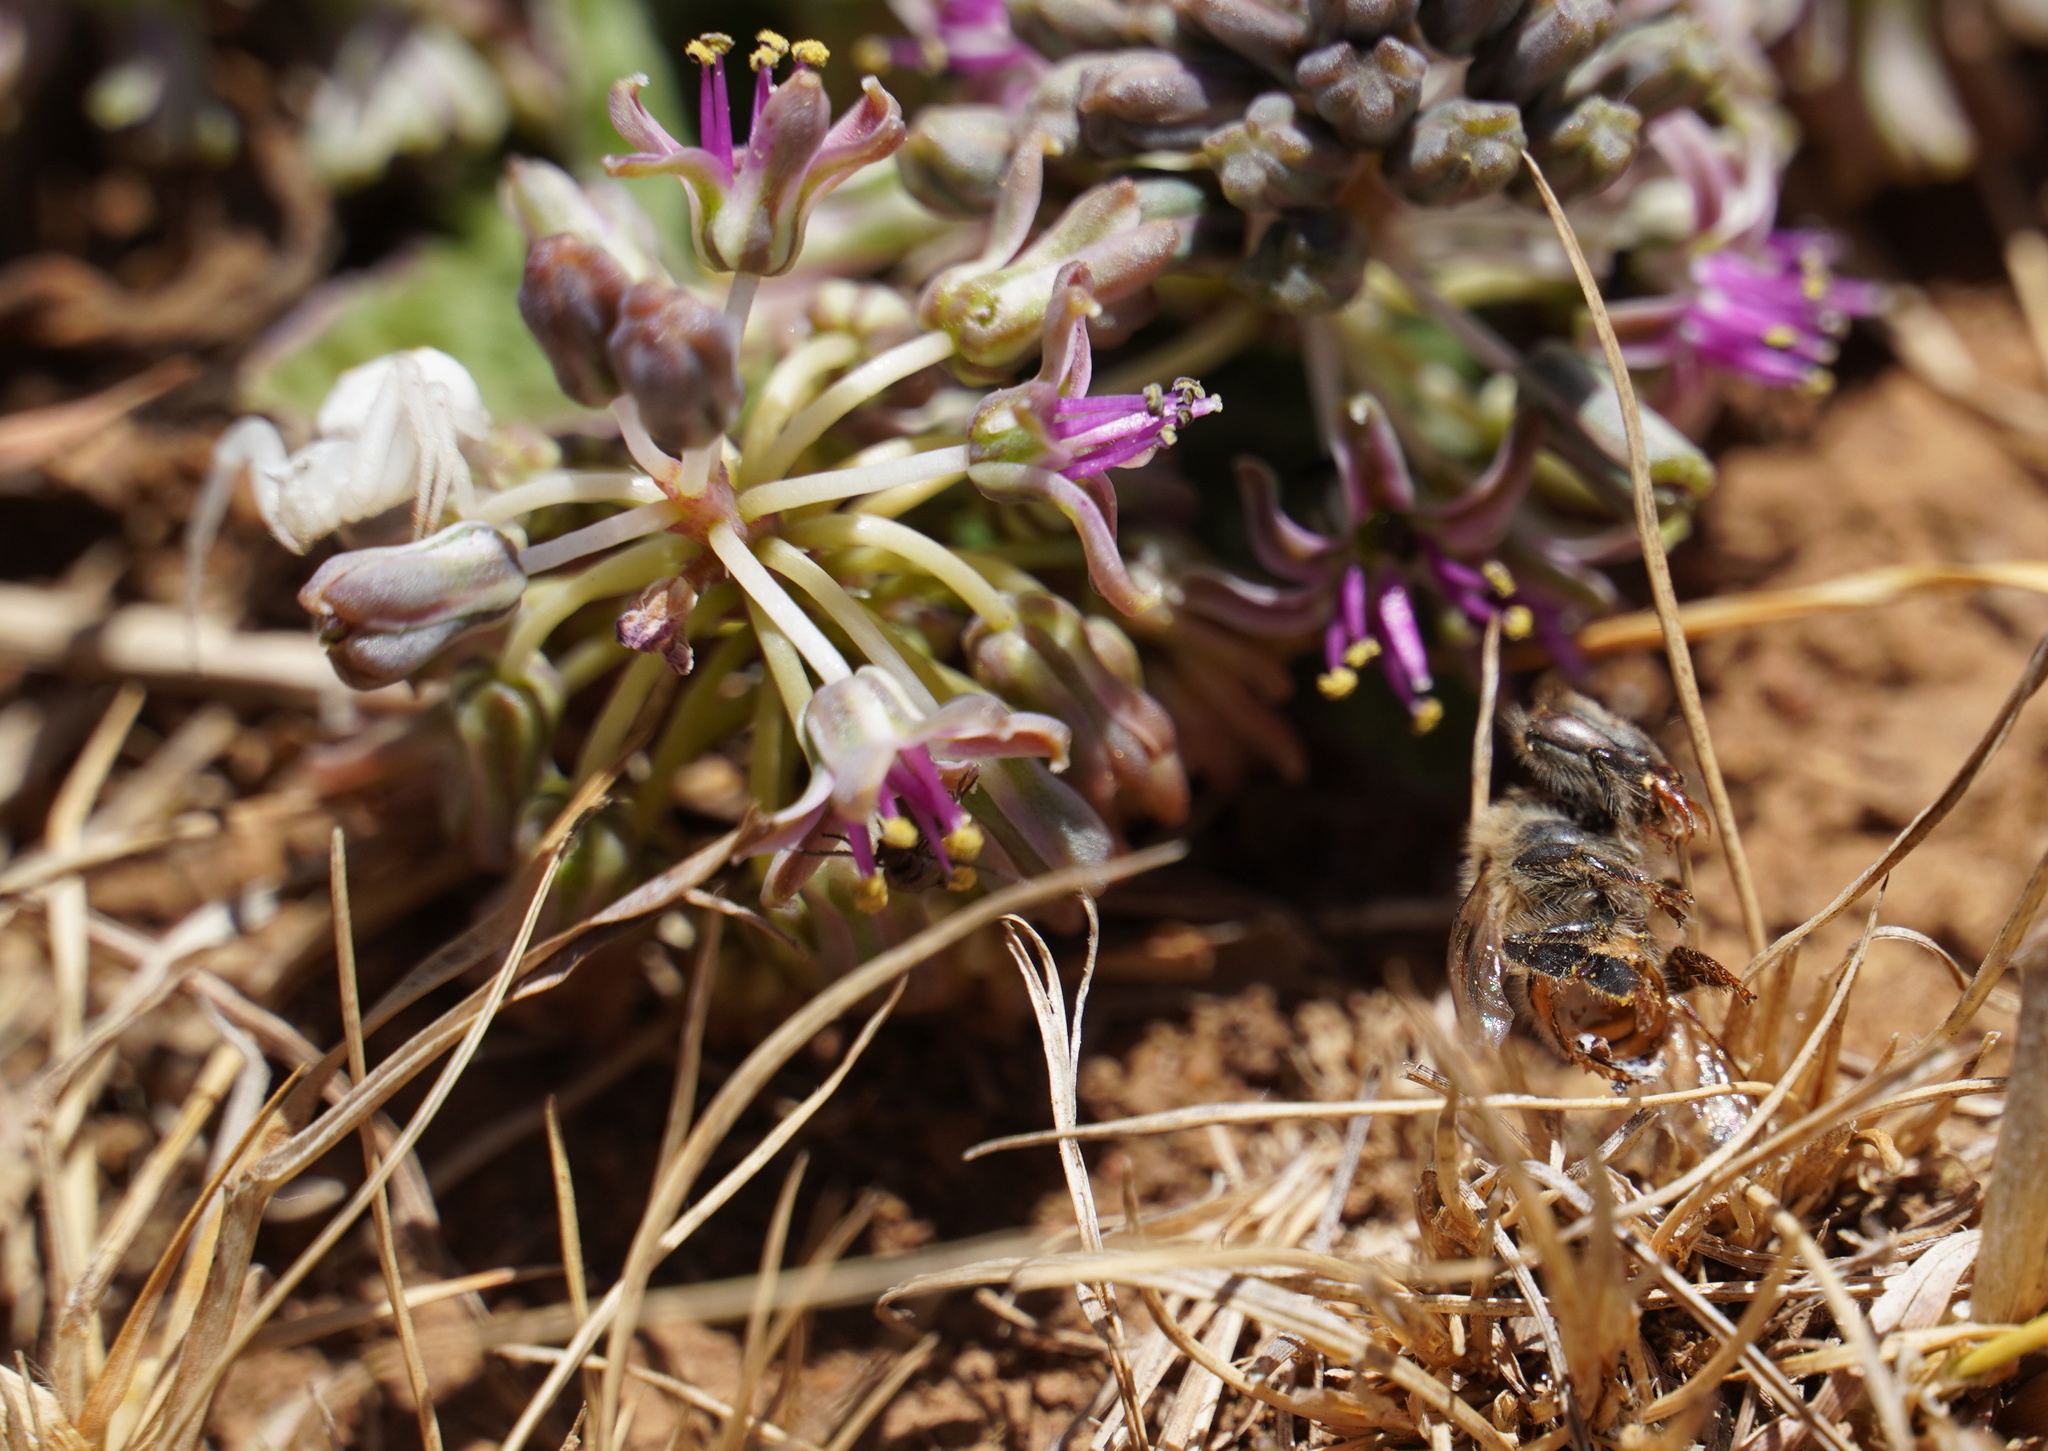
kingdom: Animalia
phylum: Arthropoda
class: Insecta
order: Hymenoptera
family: Apidae
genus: Apis
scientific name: Apis mellifera
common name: Honey bee
